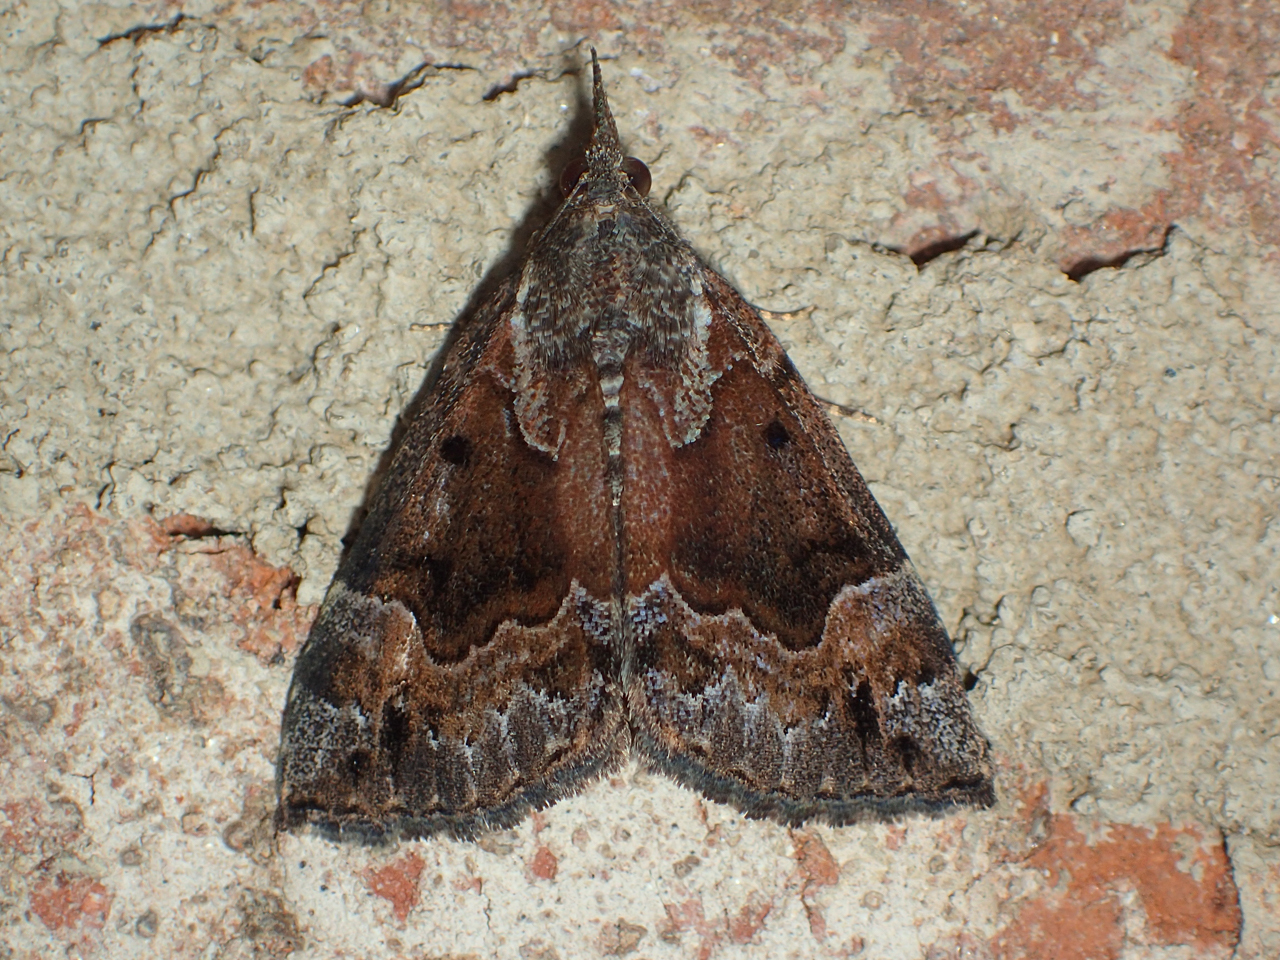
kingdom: Animalia
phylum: Arthropoda
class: Insecta
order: Lepidoptera
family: Erebidae
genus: Hypena
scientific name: Hypena palparia
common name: Mottled bomolocha moth
